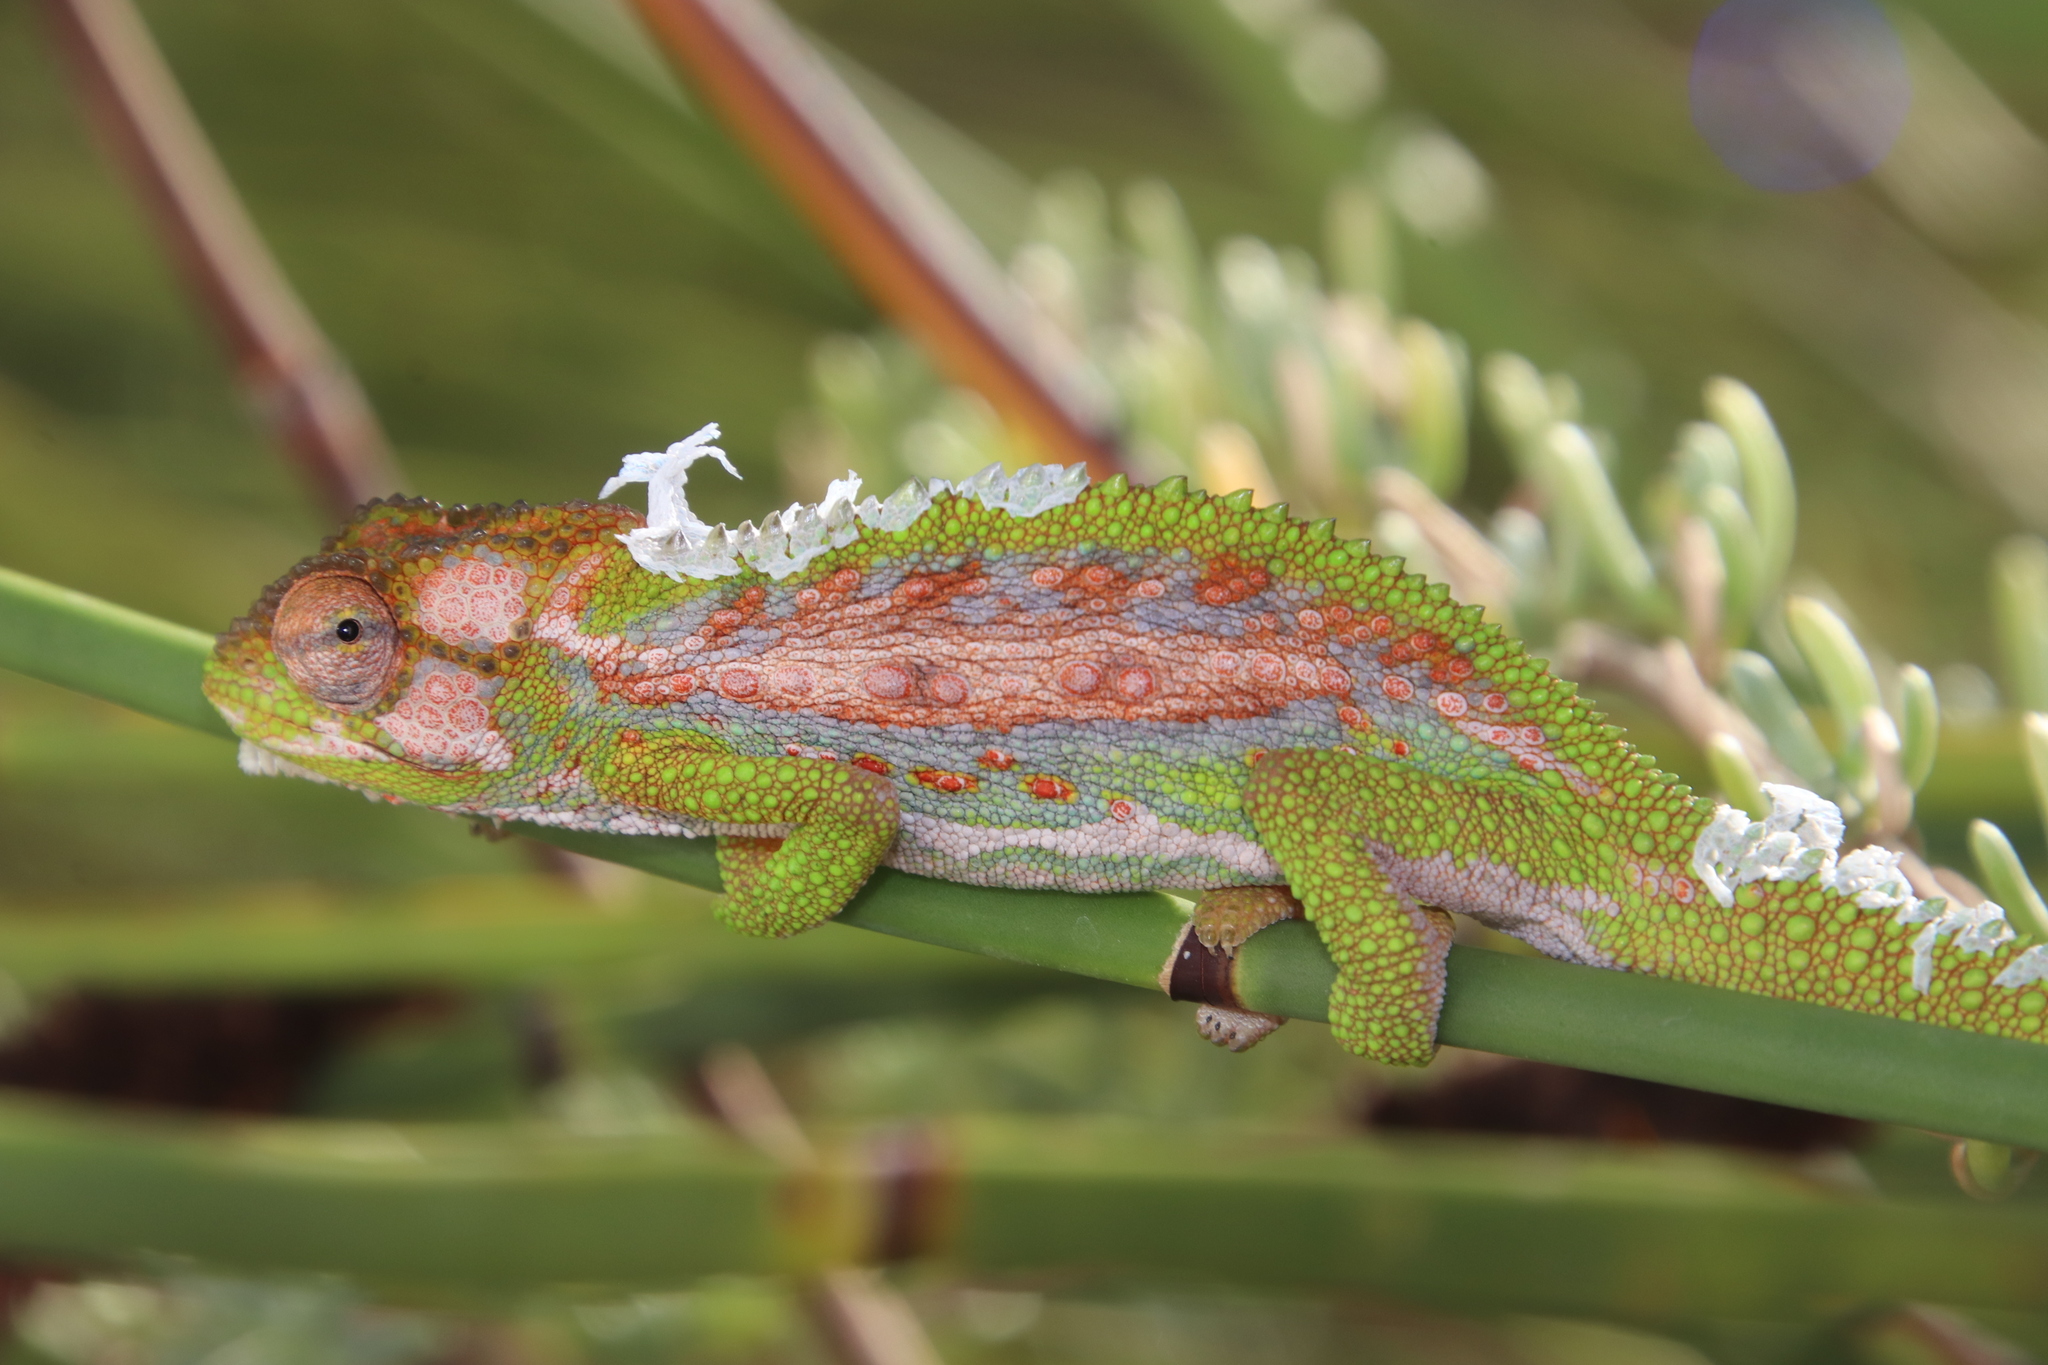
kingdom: Animalia
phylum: Chordata
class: Squamata
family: Chamaeleonidae
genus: Bradypodion
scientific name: Bradypodion pumilum
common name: Cape dwarf chameleon
